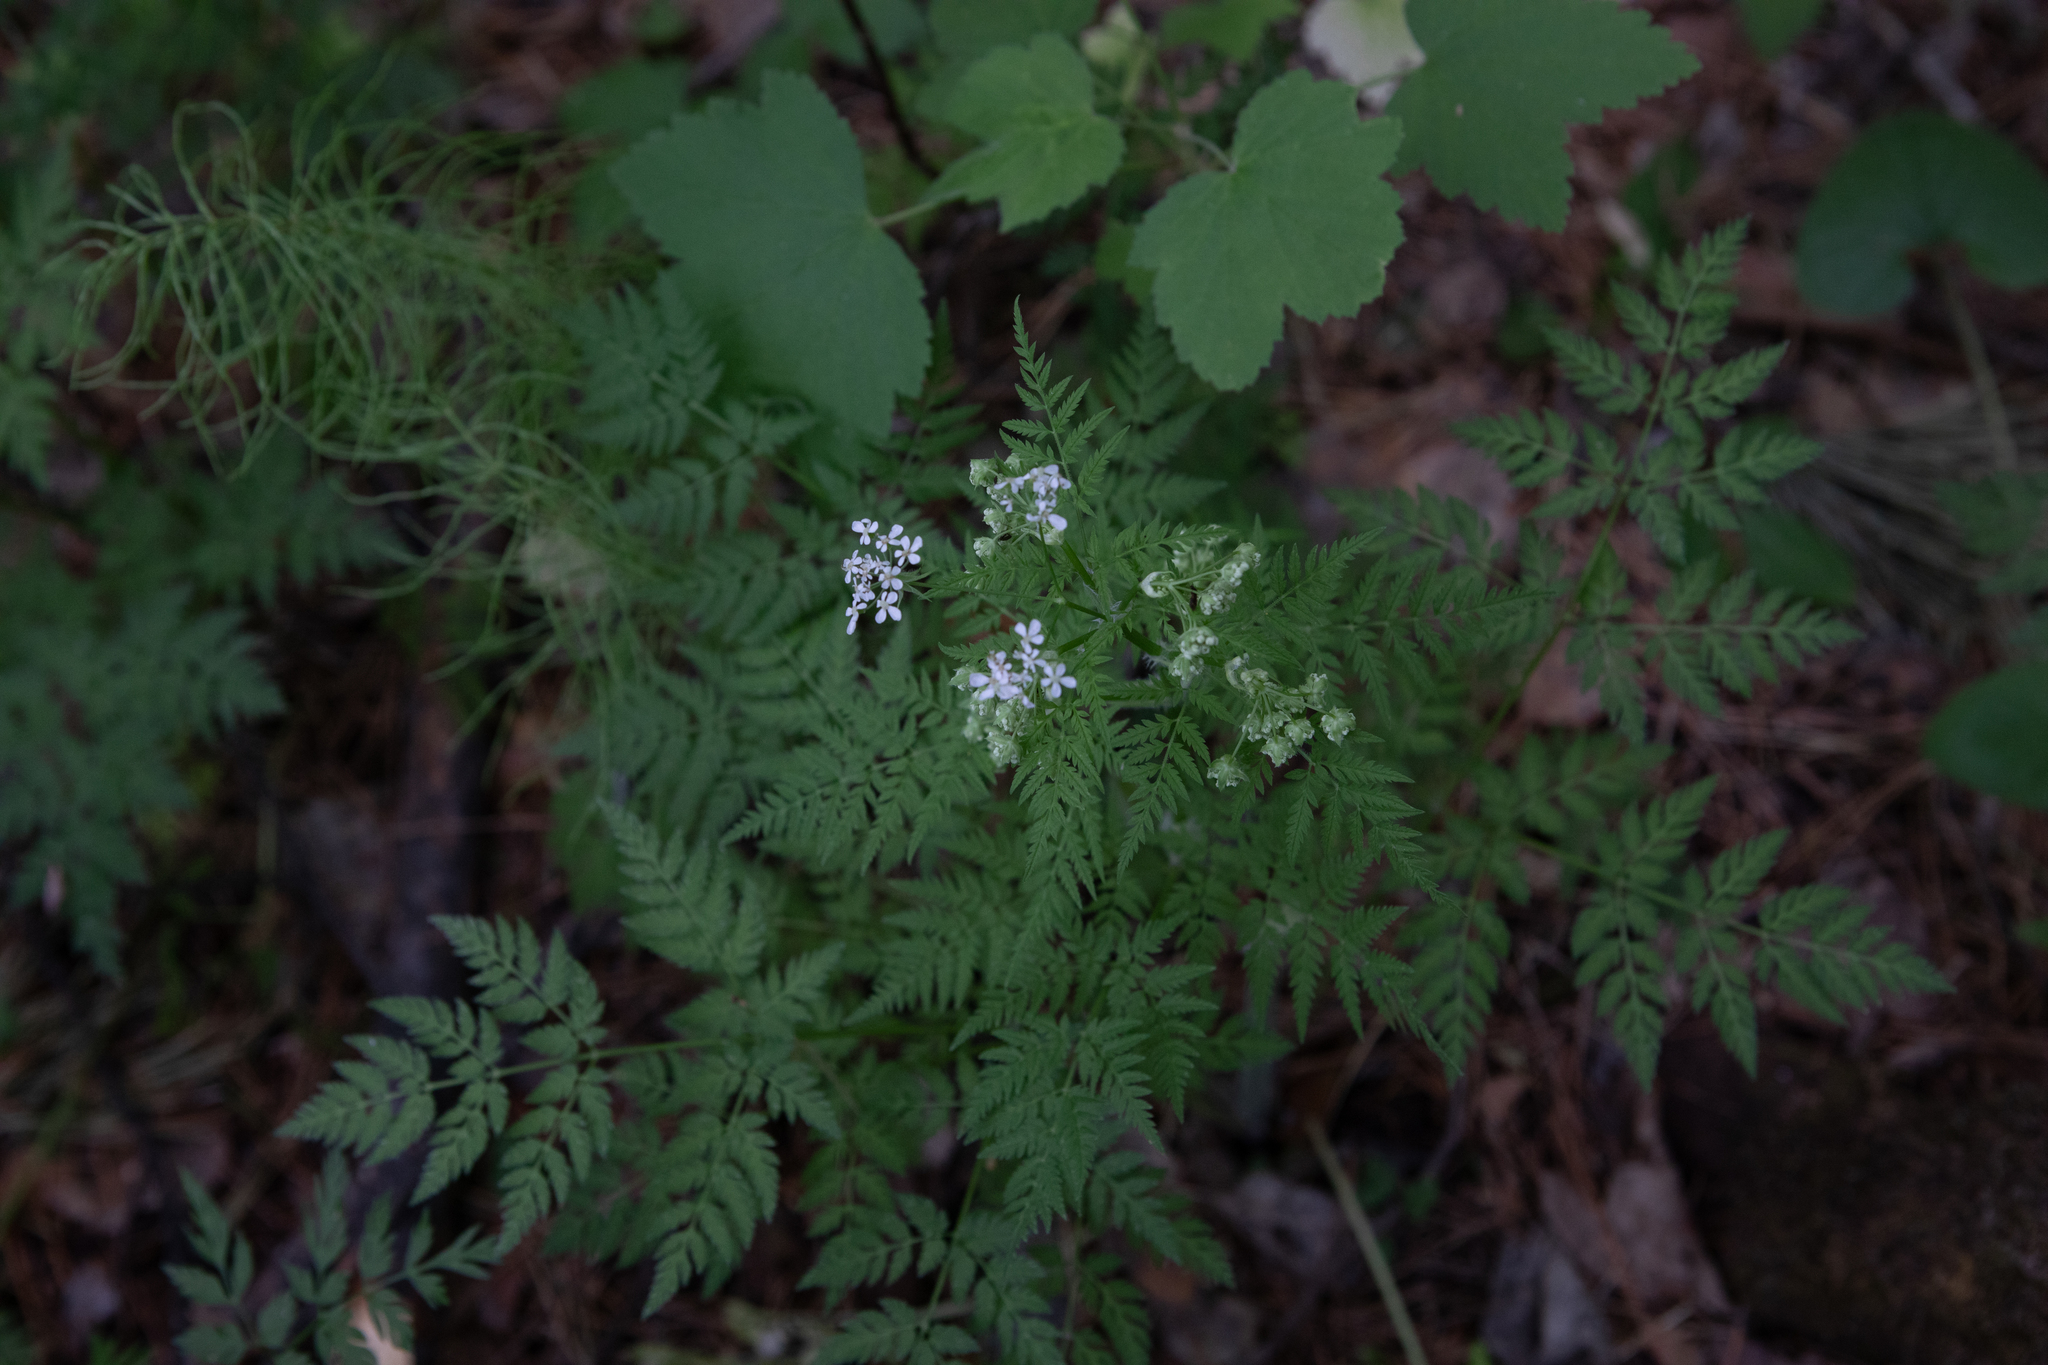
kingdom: Plantae
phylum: Tracheophyta
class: Magnoliopsida
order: Apiales
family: Apiaceae
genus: Anthriscus
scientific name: Anthriscus sylvestris
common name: Cow parsley
